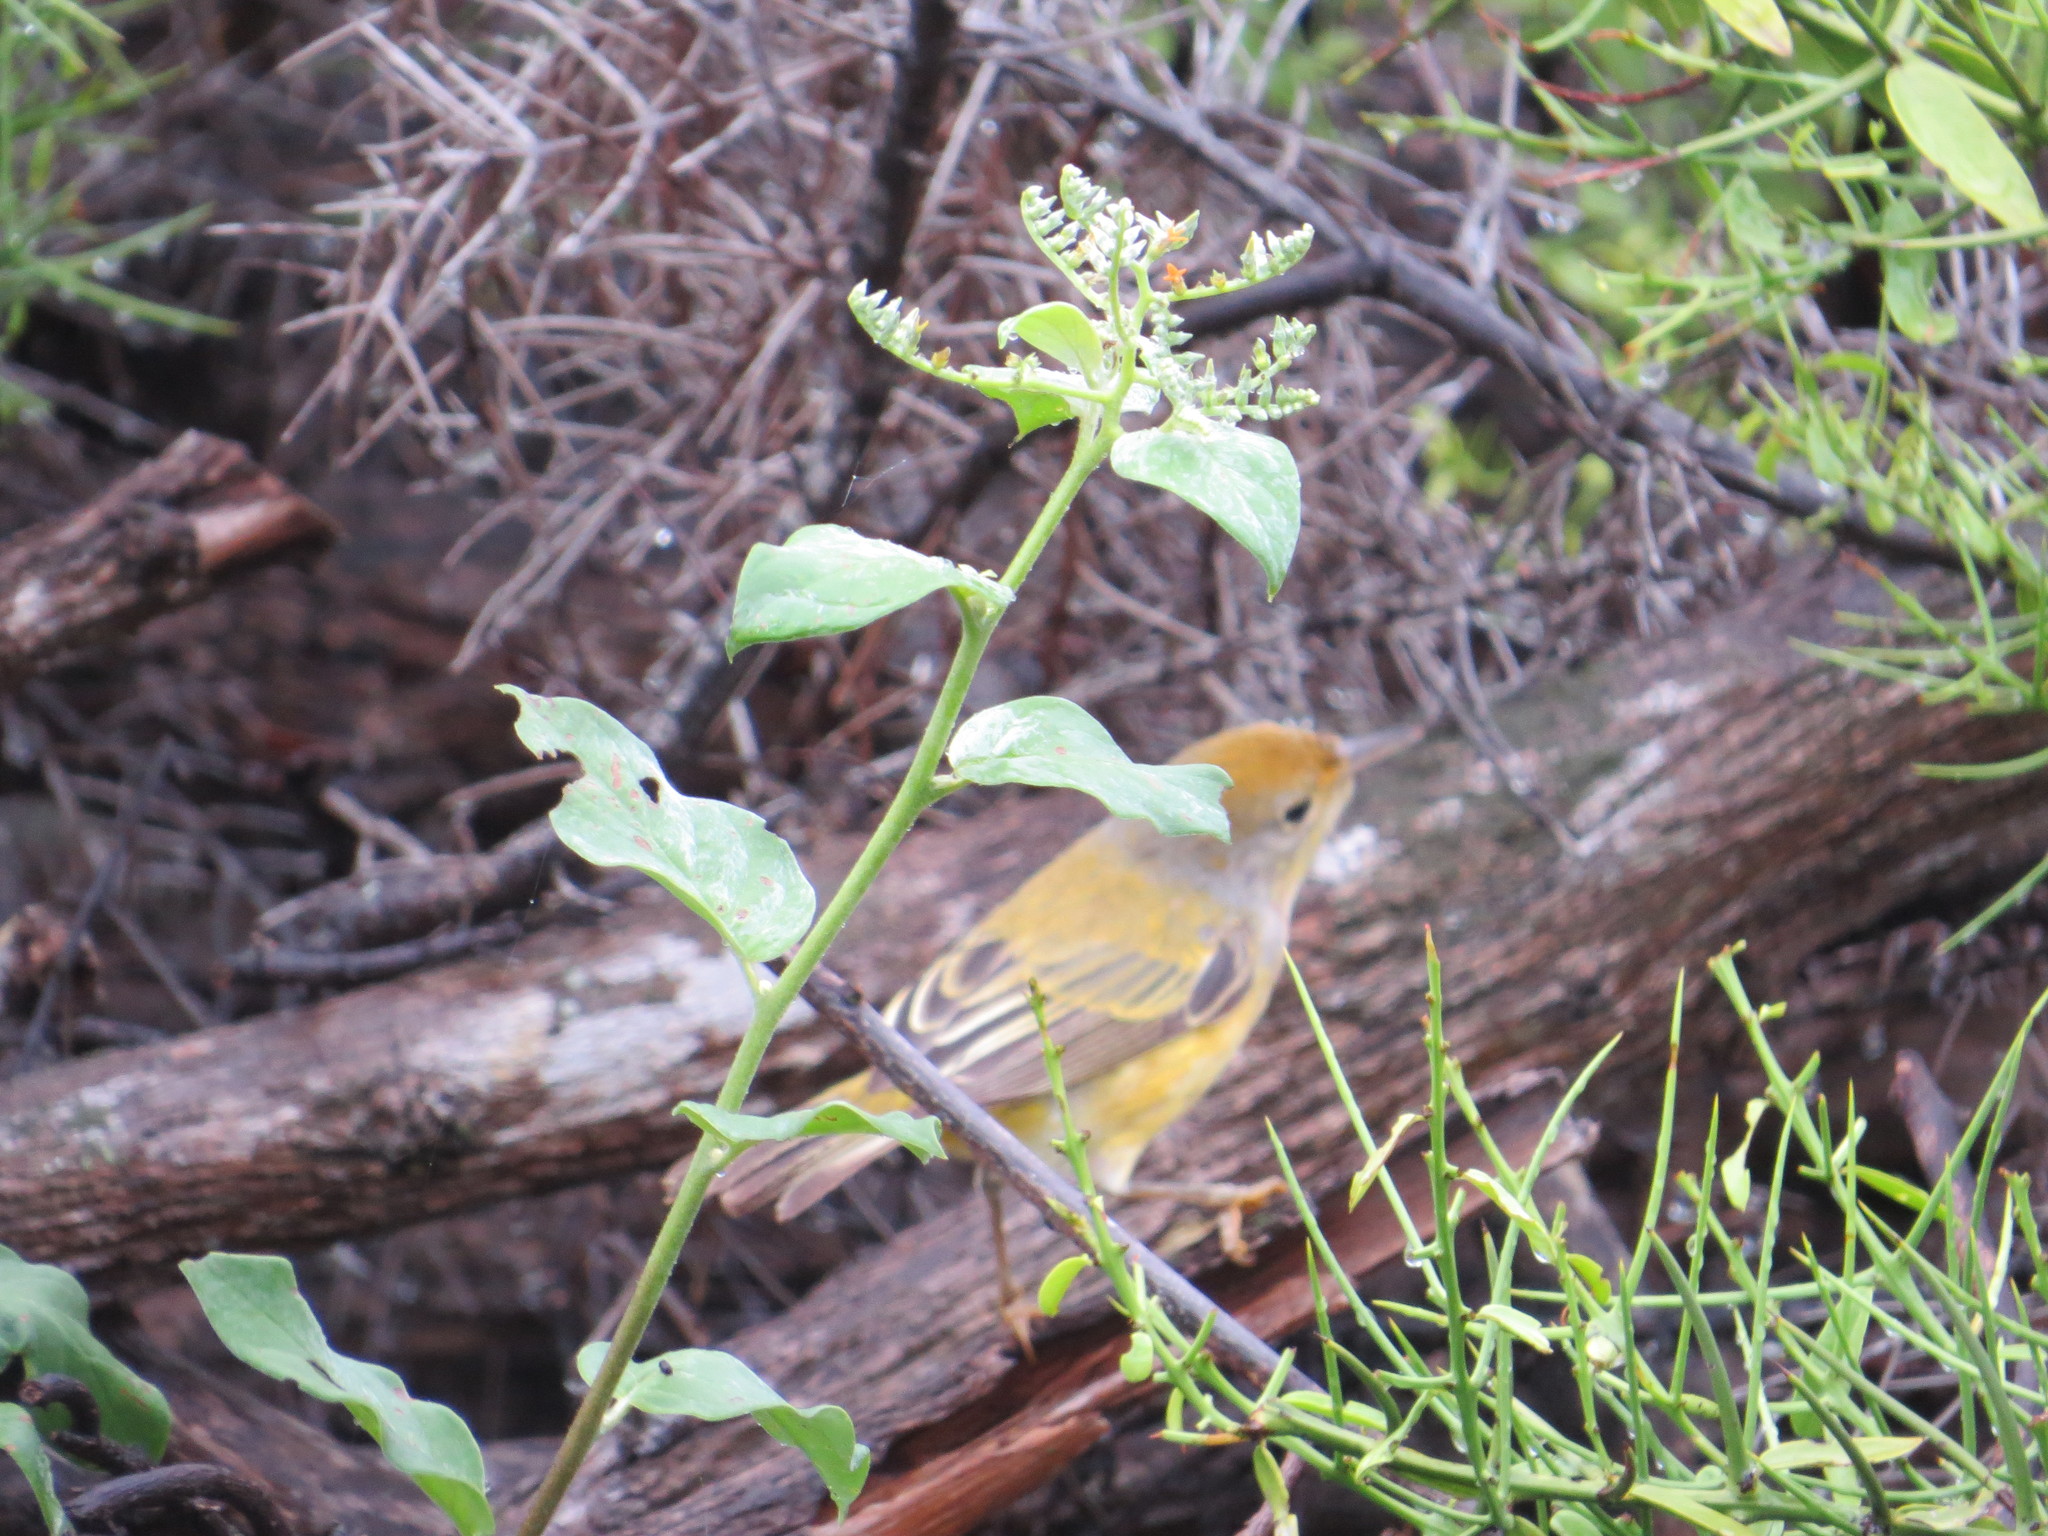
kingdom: Animalia
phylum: Chordata
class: Aves
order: Passeriformes
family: Parulidae
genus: Setophaga
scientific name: Setophaga petechia
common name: Yellow warbler
